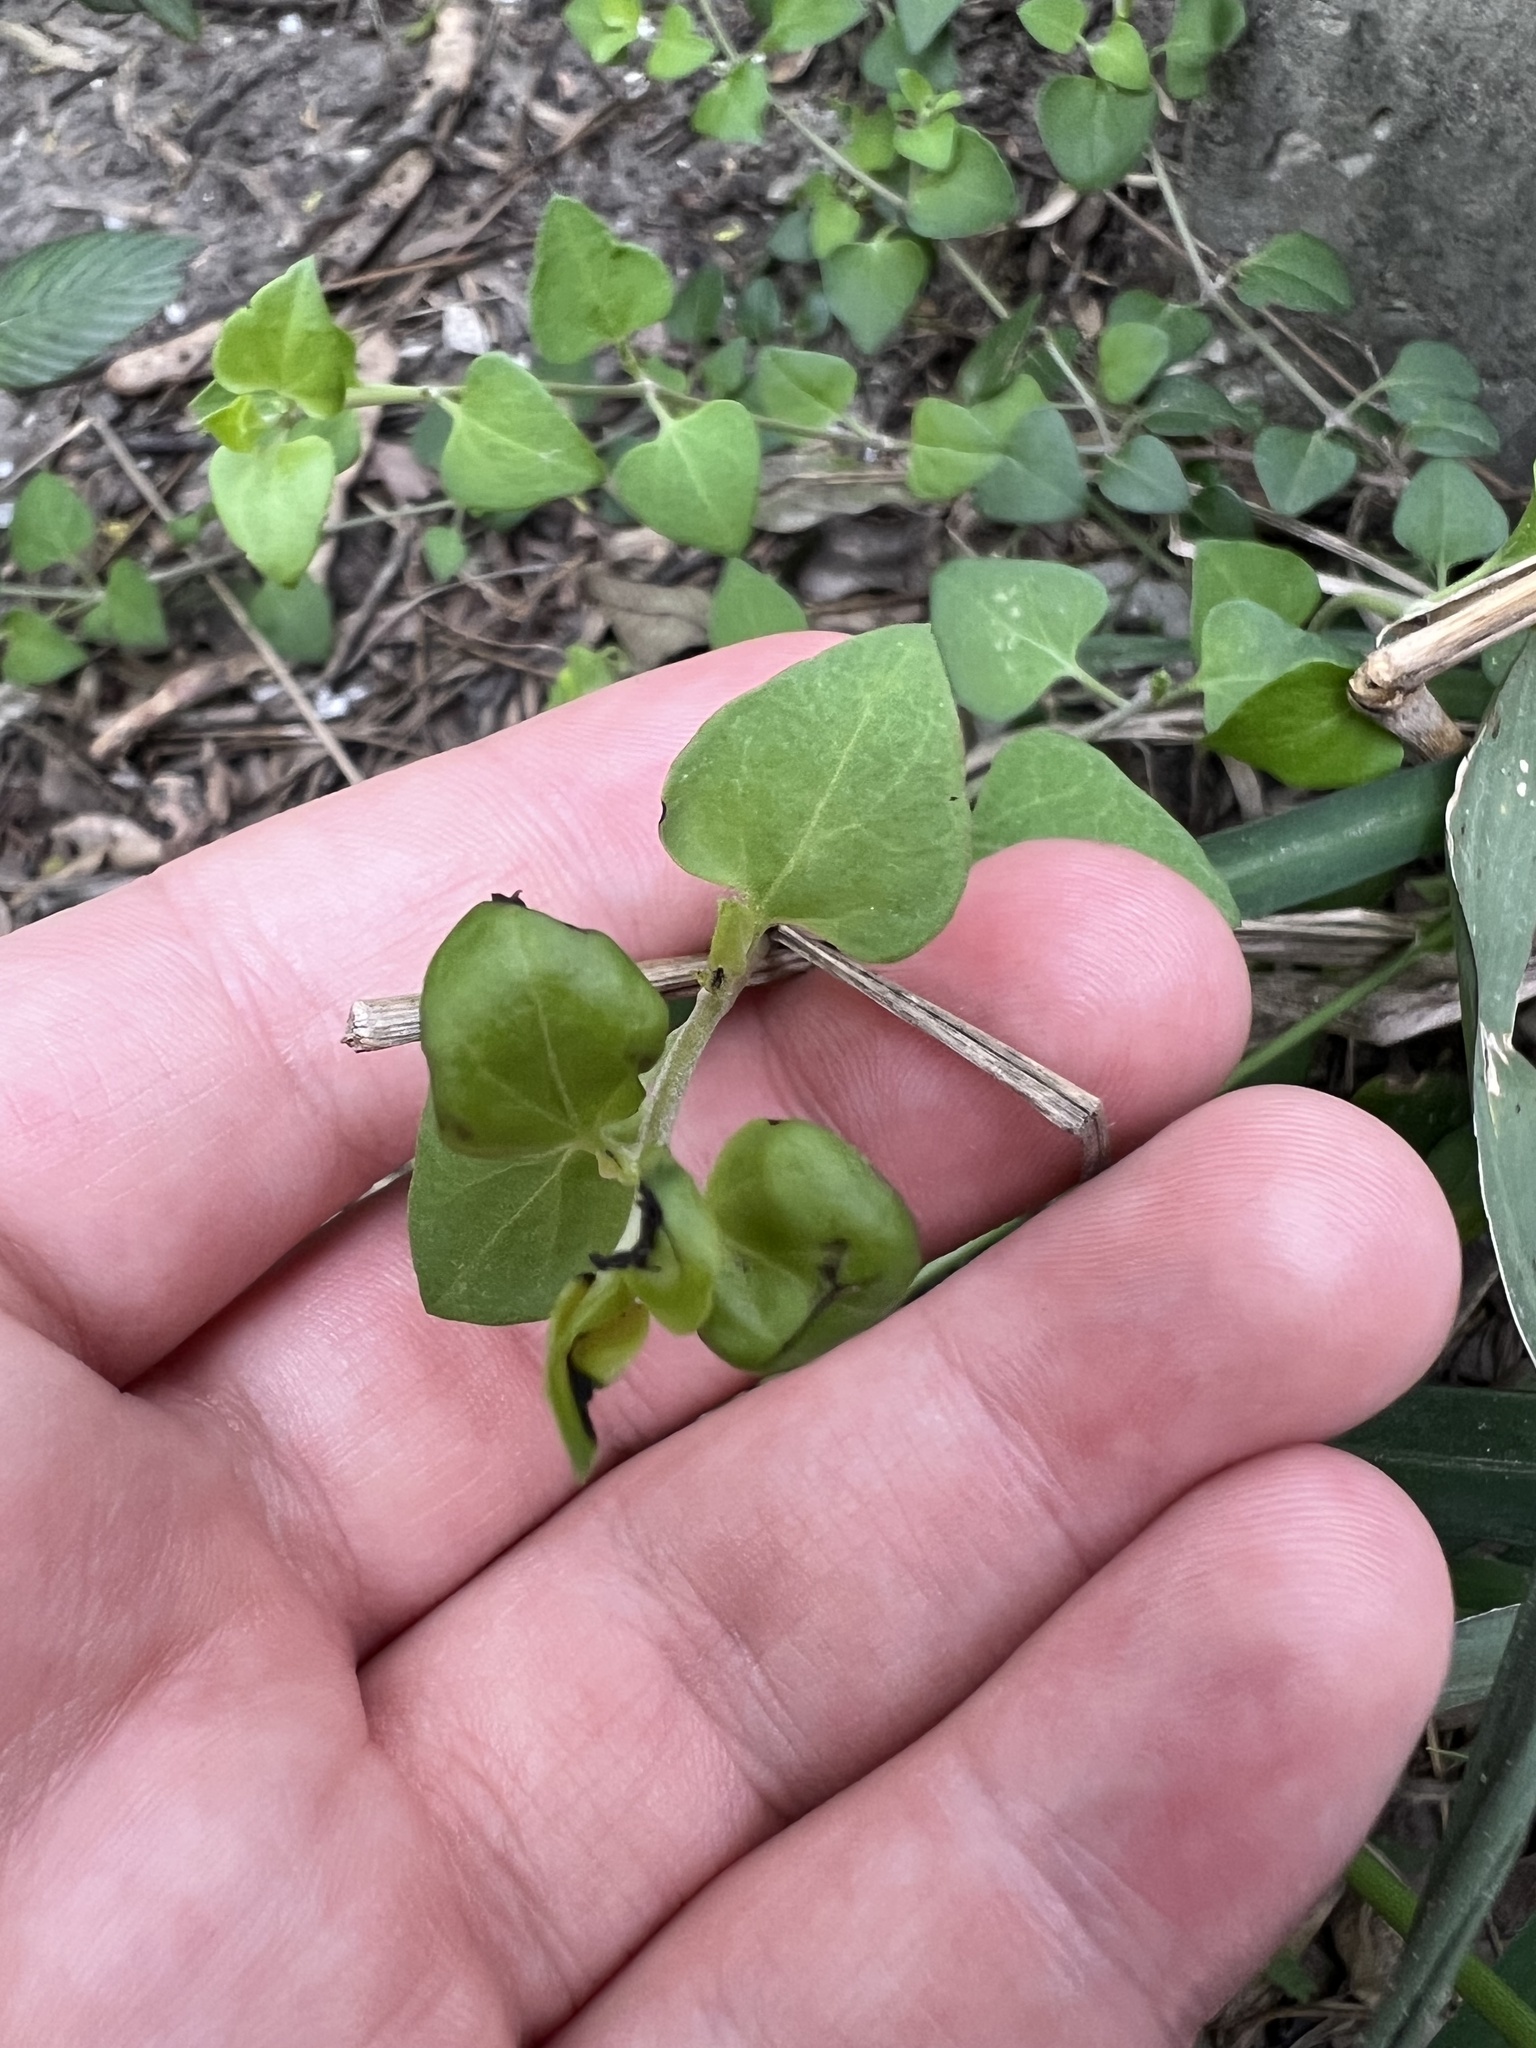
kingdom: Plantae
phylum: Tracheophyta
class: Magnoliopsida
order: Caryophyllales
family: Nyctaginaceae
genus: Acleisanthes
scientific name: Acleisanthes obtusa
